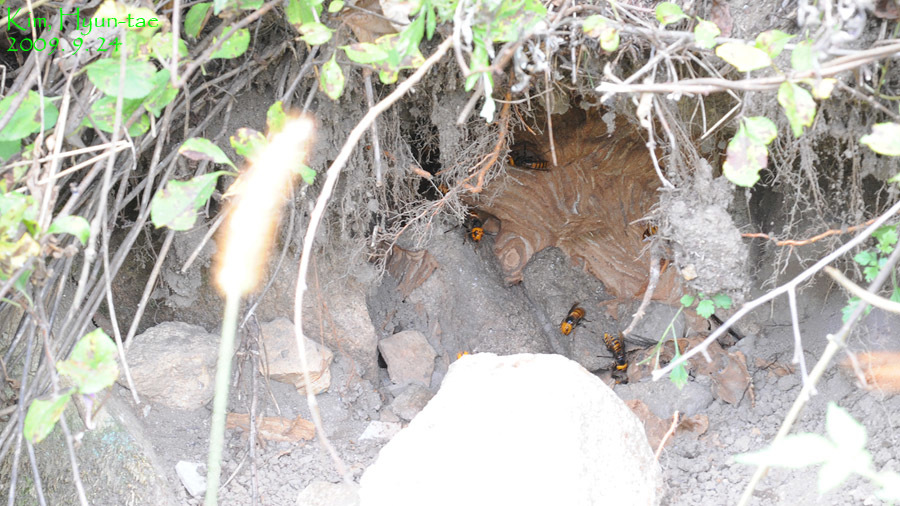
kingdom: Animalia
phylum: Arthropoda
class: Insecta
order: Hymenoptera
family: Vespidae
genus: Vespa
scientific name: Vespa mandarinia
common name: Asian giant hornet
